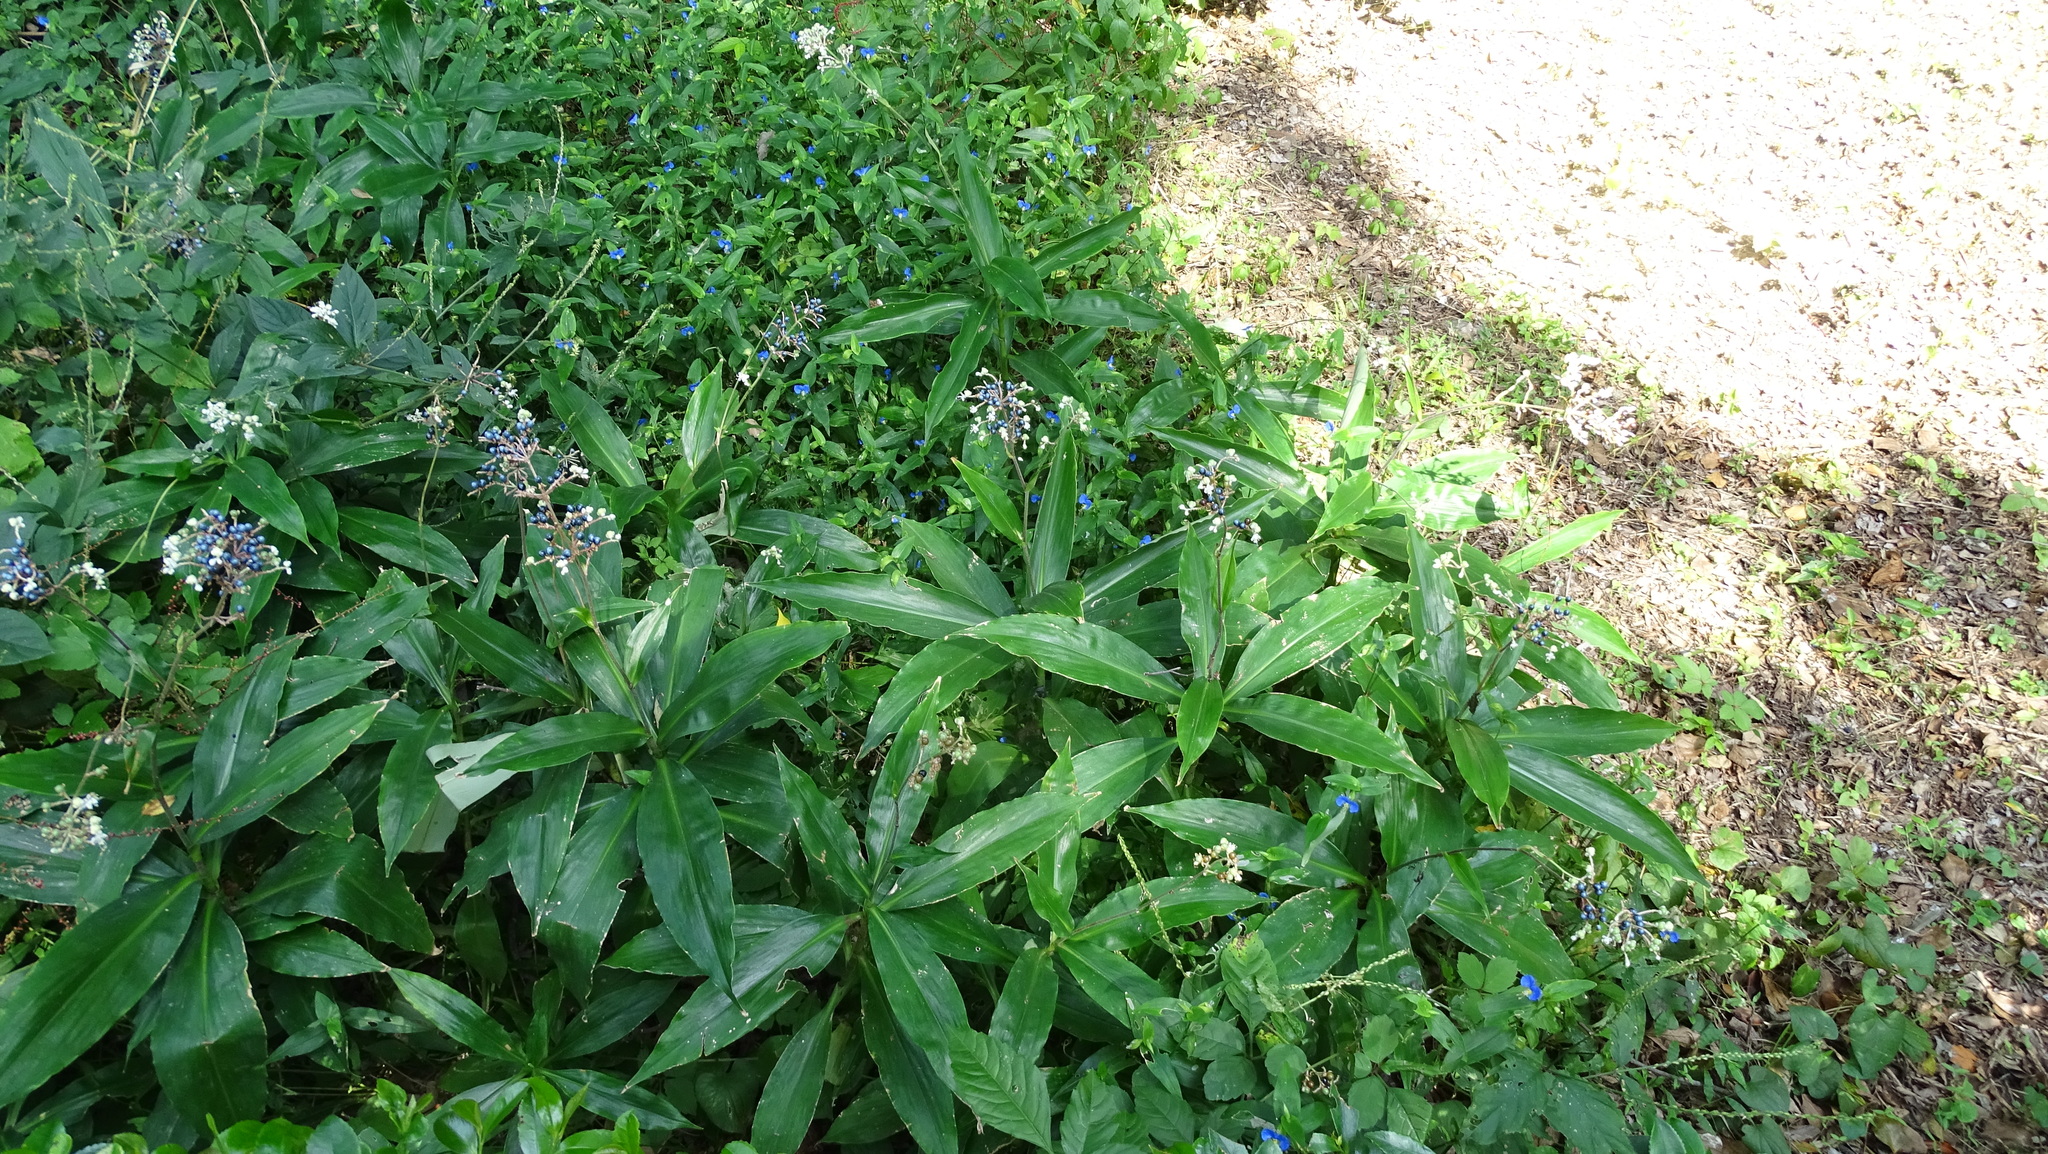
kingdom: Plantae
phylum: Tracheophyta
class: Liliopsida
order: Commelinales
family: Commelinaceae
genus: Pollia
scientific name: Pollia japonica
